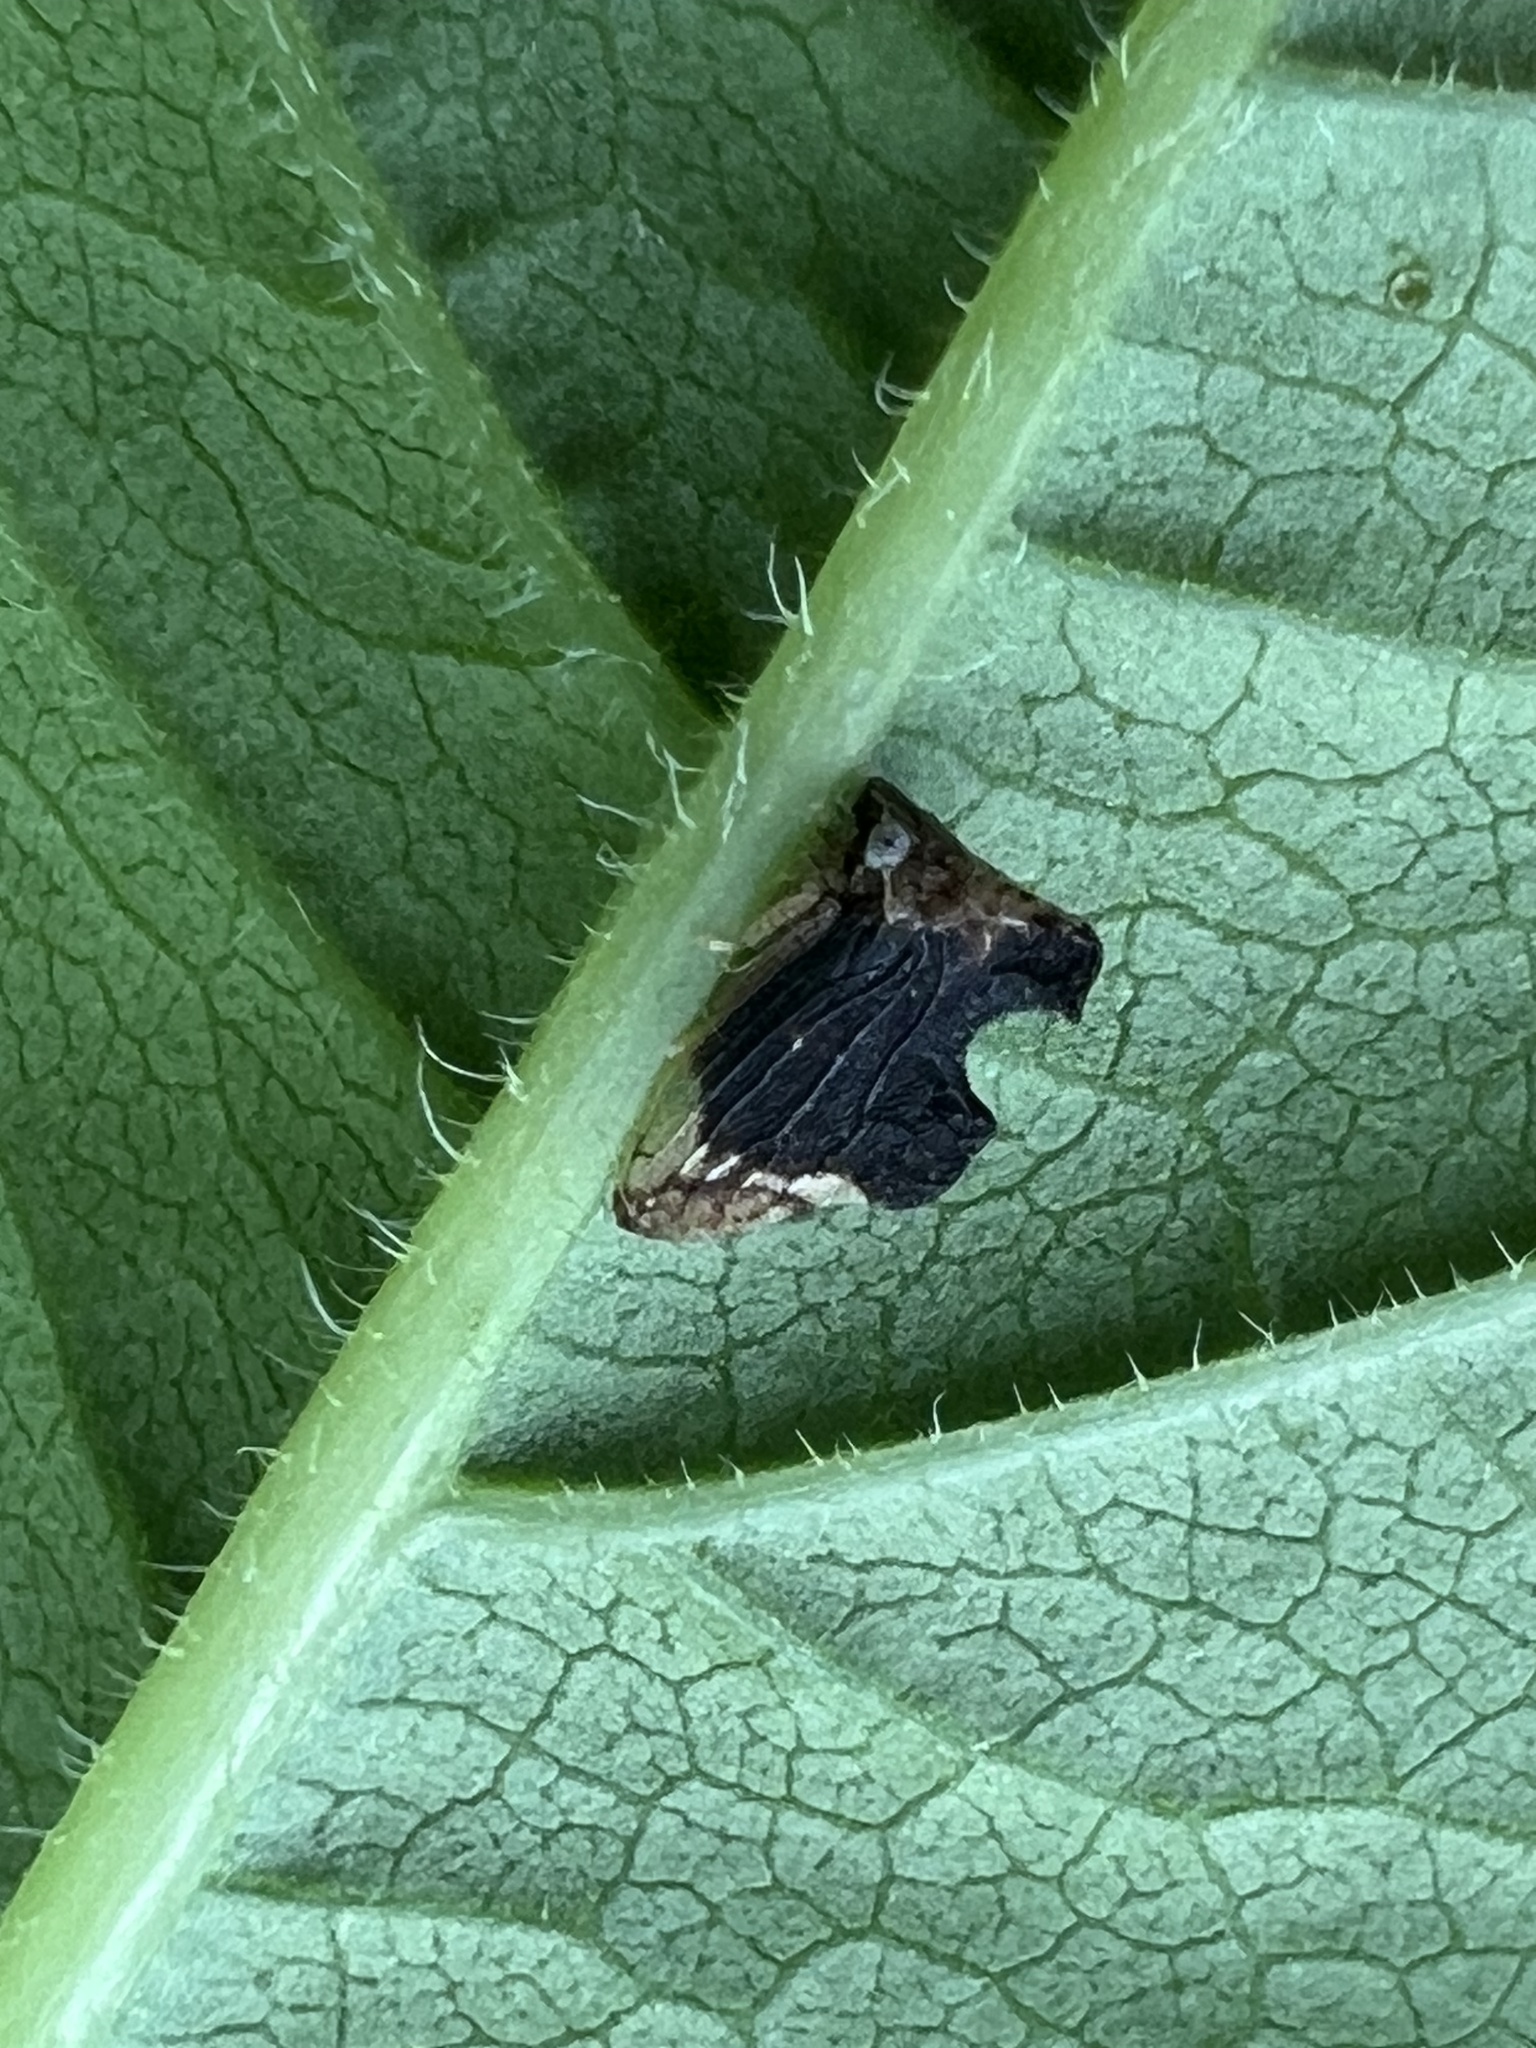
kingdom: Animalia
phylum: Arthropoda
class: Insecta
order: Hemiptera
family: Membracidae
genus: Entylia
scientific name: Entylia carinata
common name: Keeled treehopper
